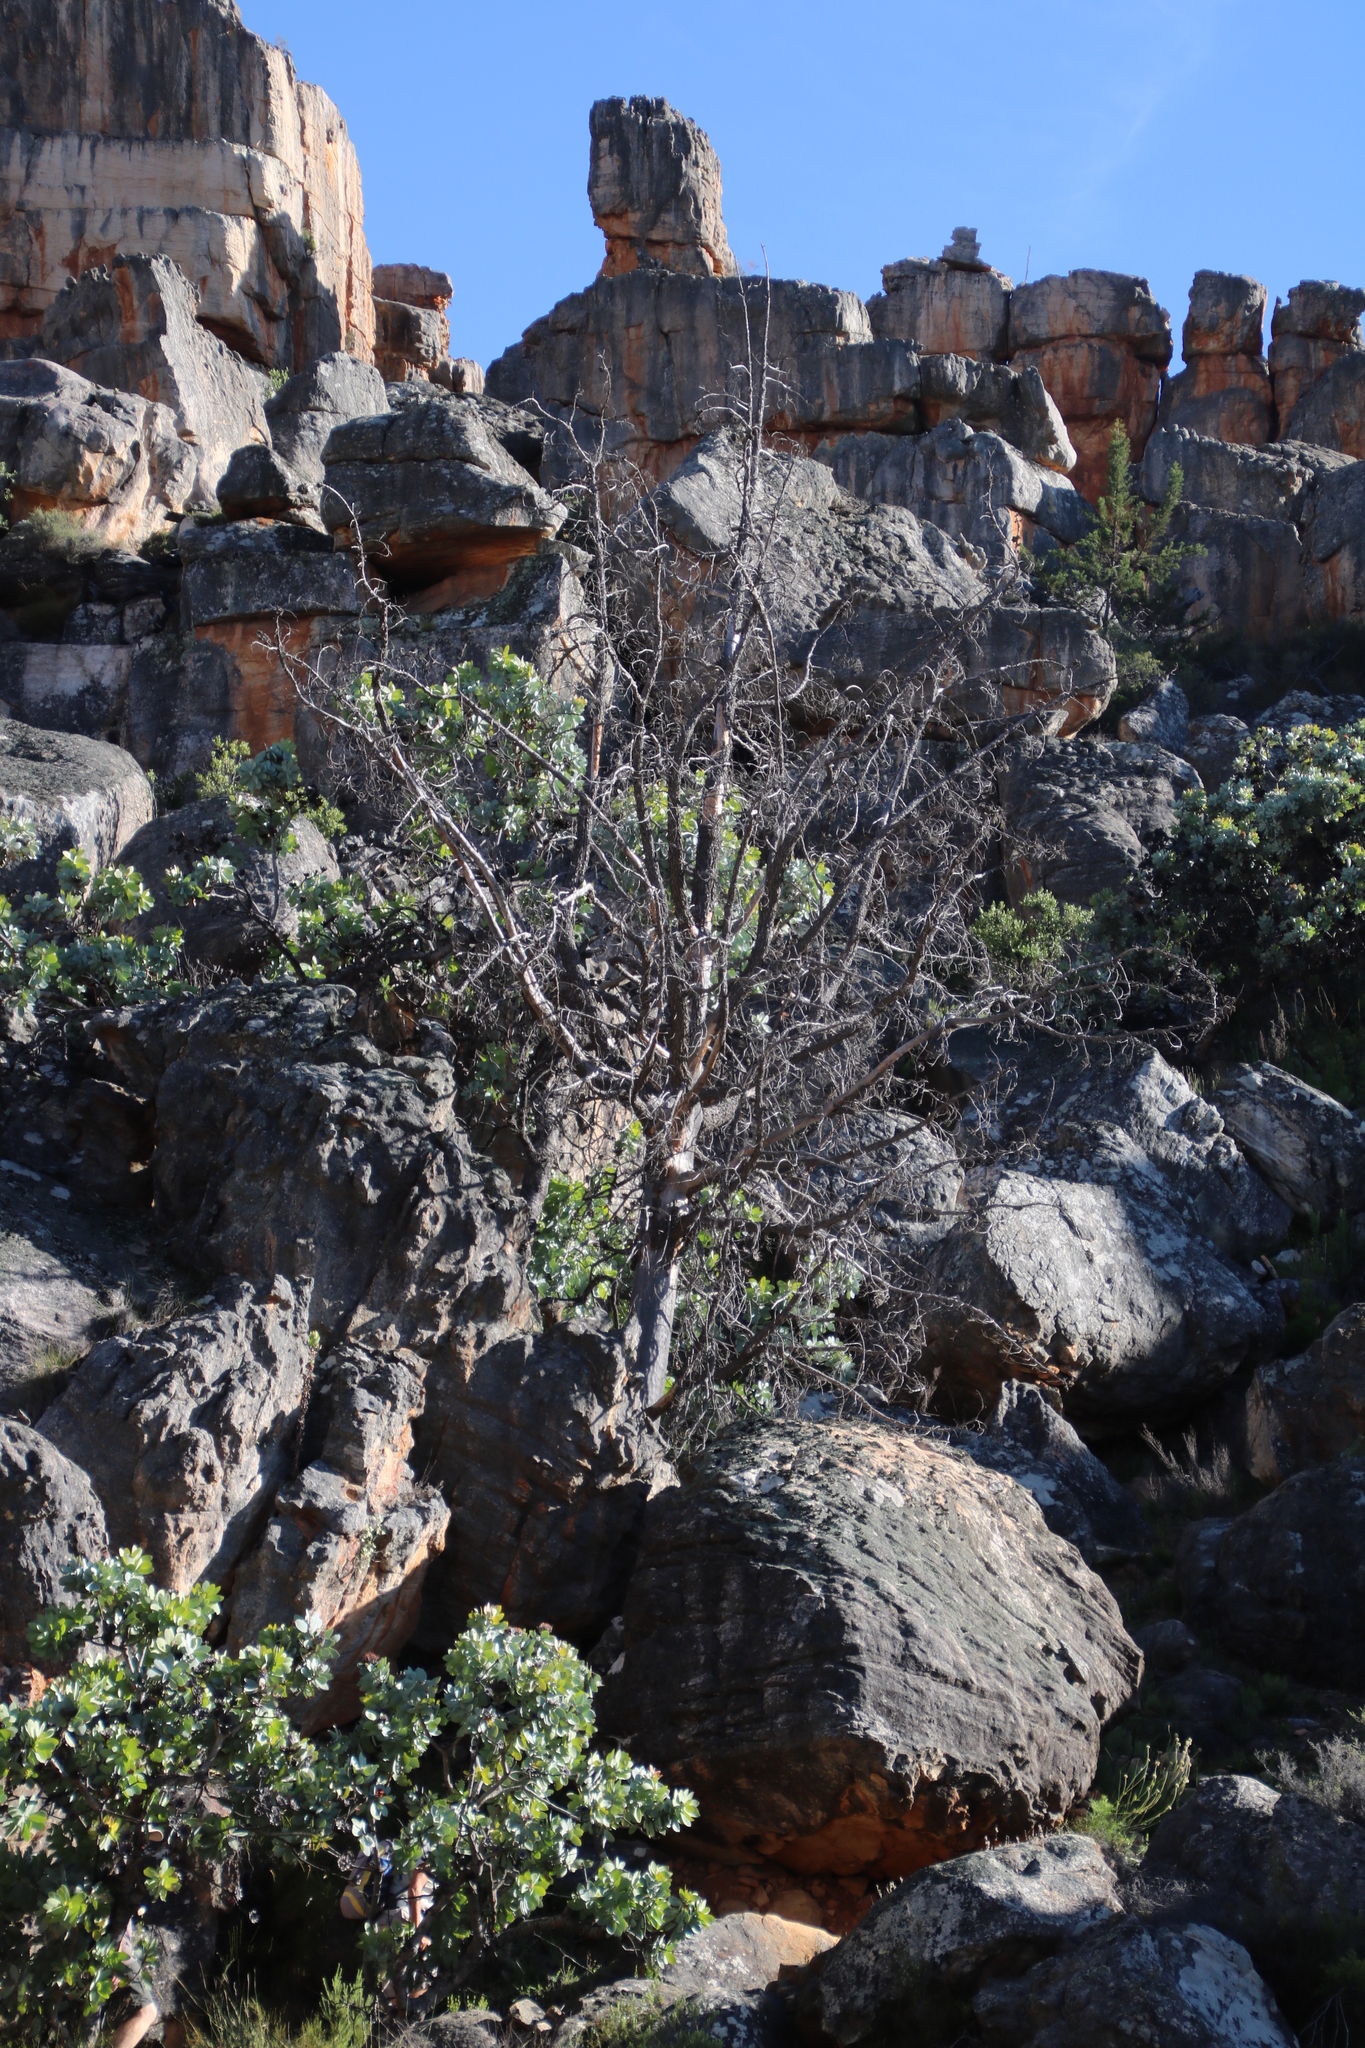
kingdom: Plantae
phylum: Tracheophyta
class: Pinopsida
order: Pinales
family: Cupressaceae
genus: Widdringtonia
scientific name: Widdringtonia nodiflora
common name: Cape cypress
